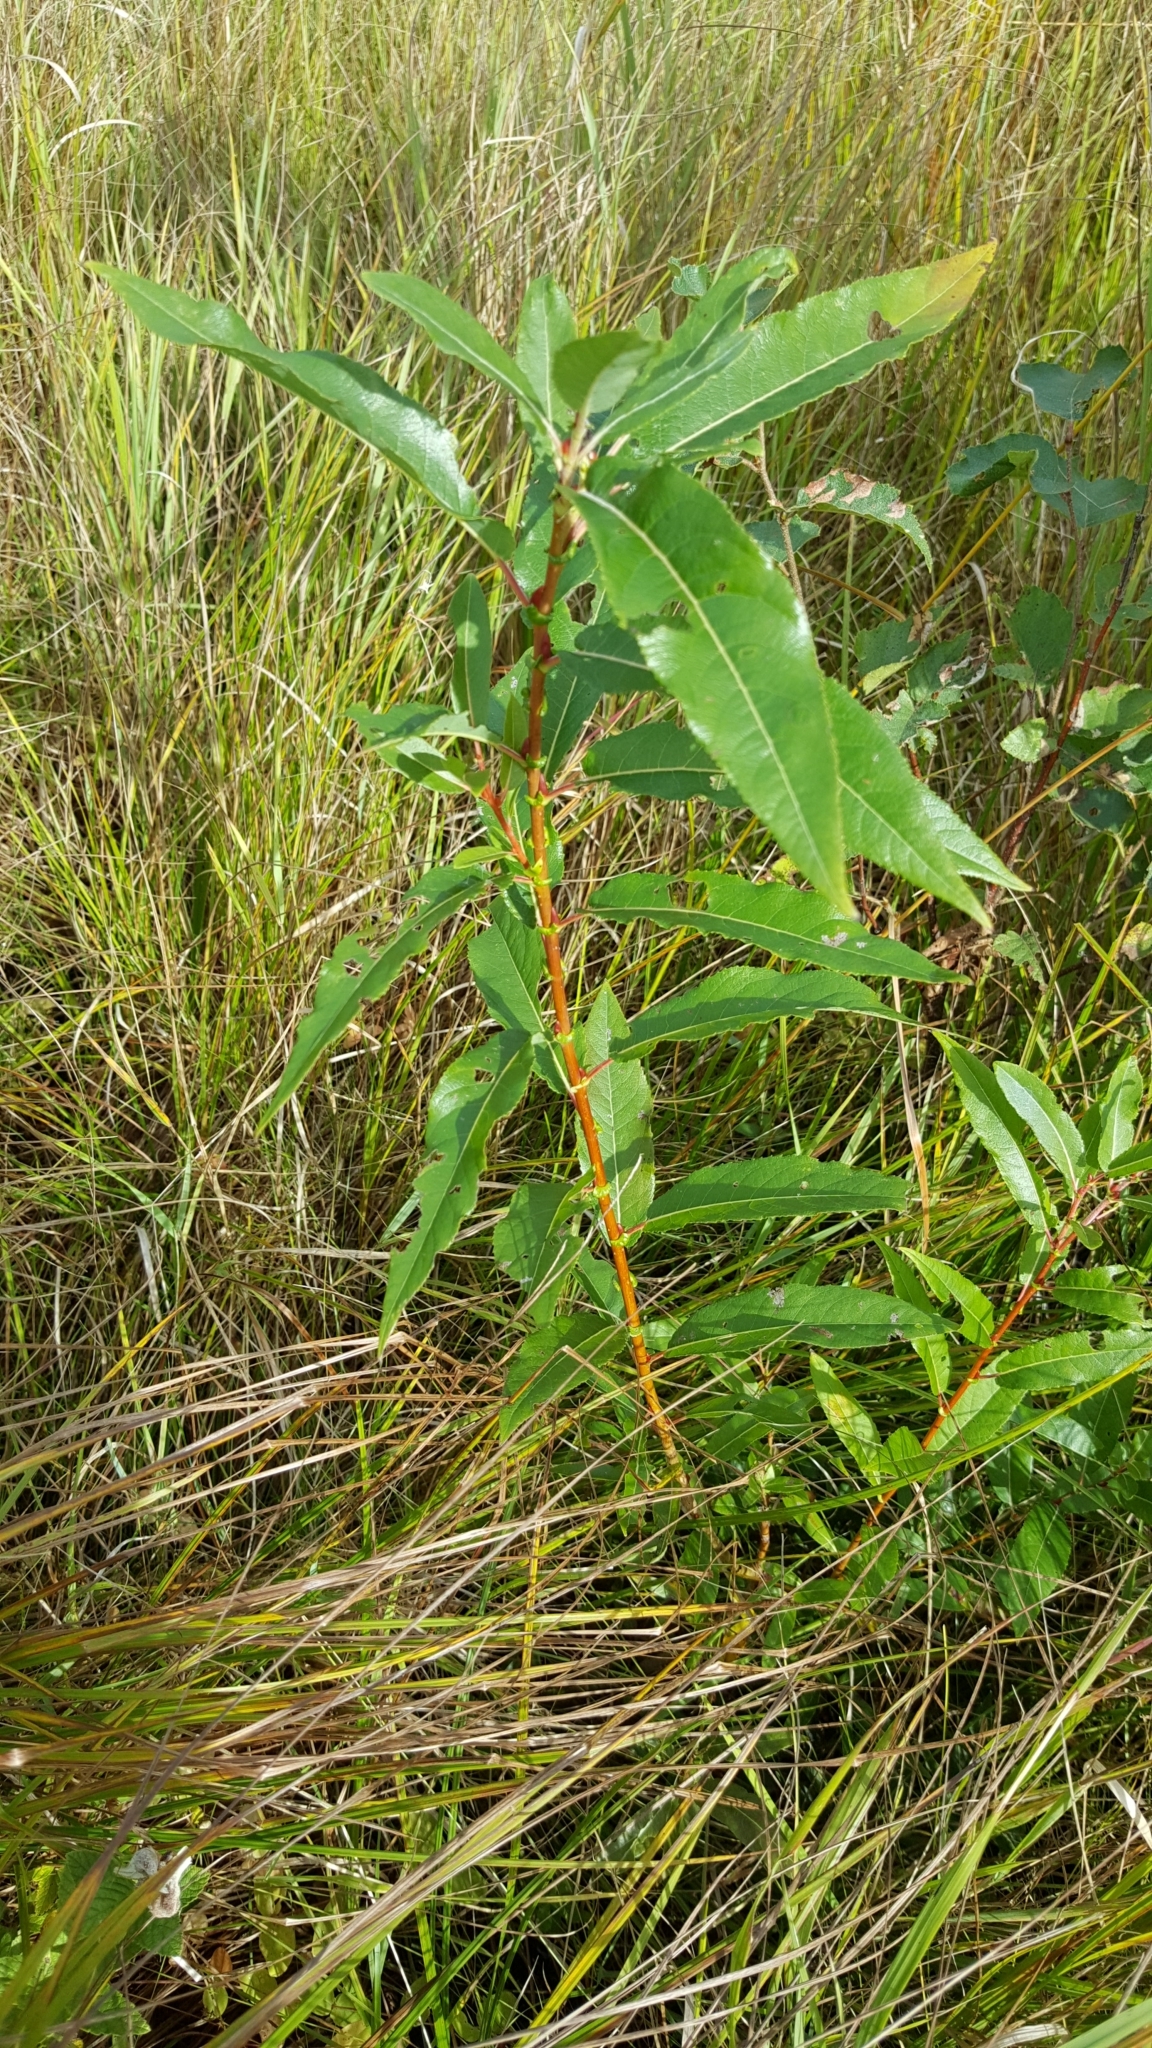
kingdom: Plantae
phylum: Tracheophyta
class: Magnoliopsida
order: Malpighiales
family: Salicaceae
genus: Salix
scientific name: Salix eriocephala
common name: Heart-leaved willow
